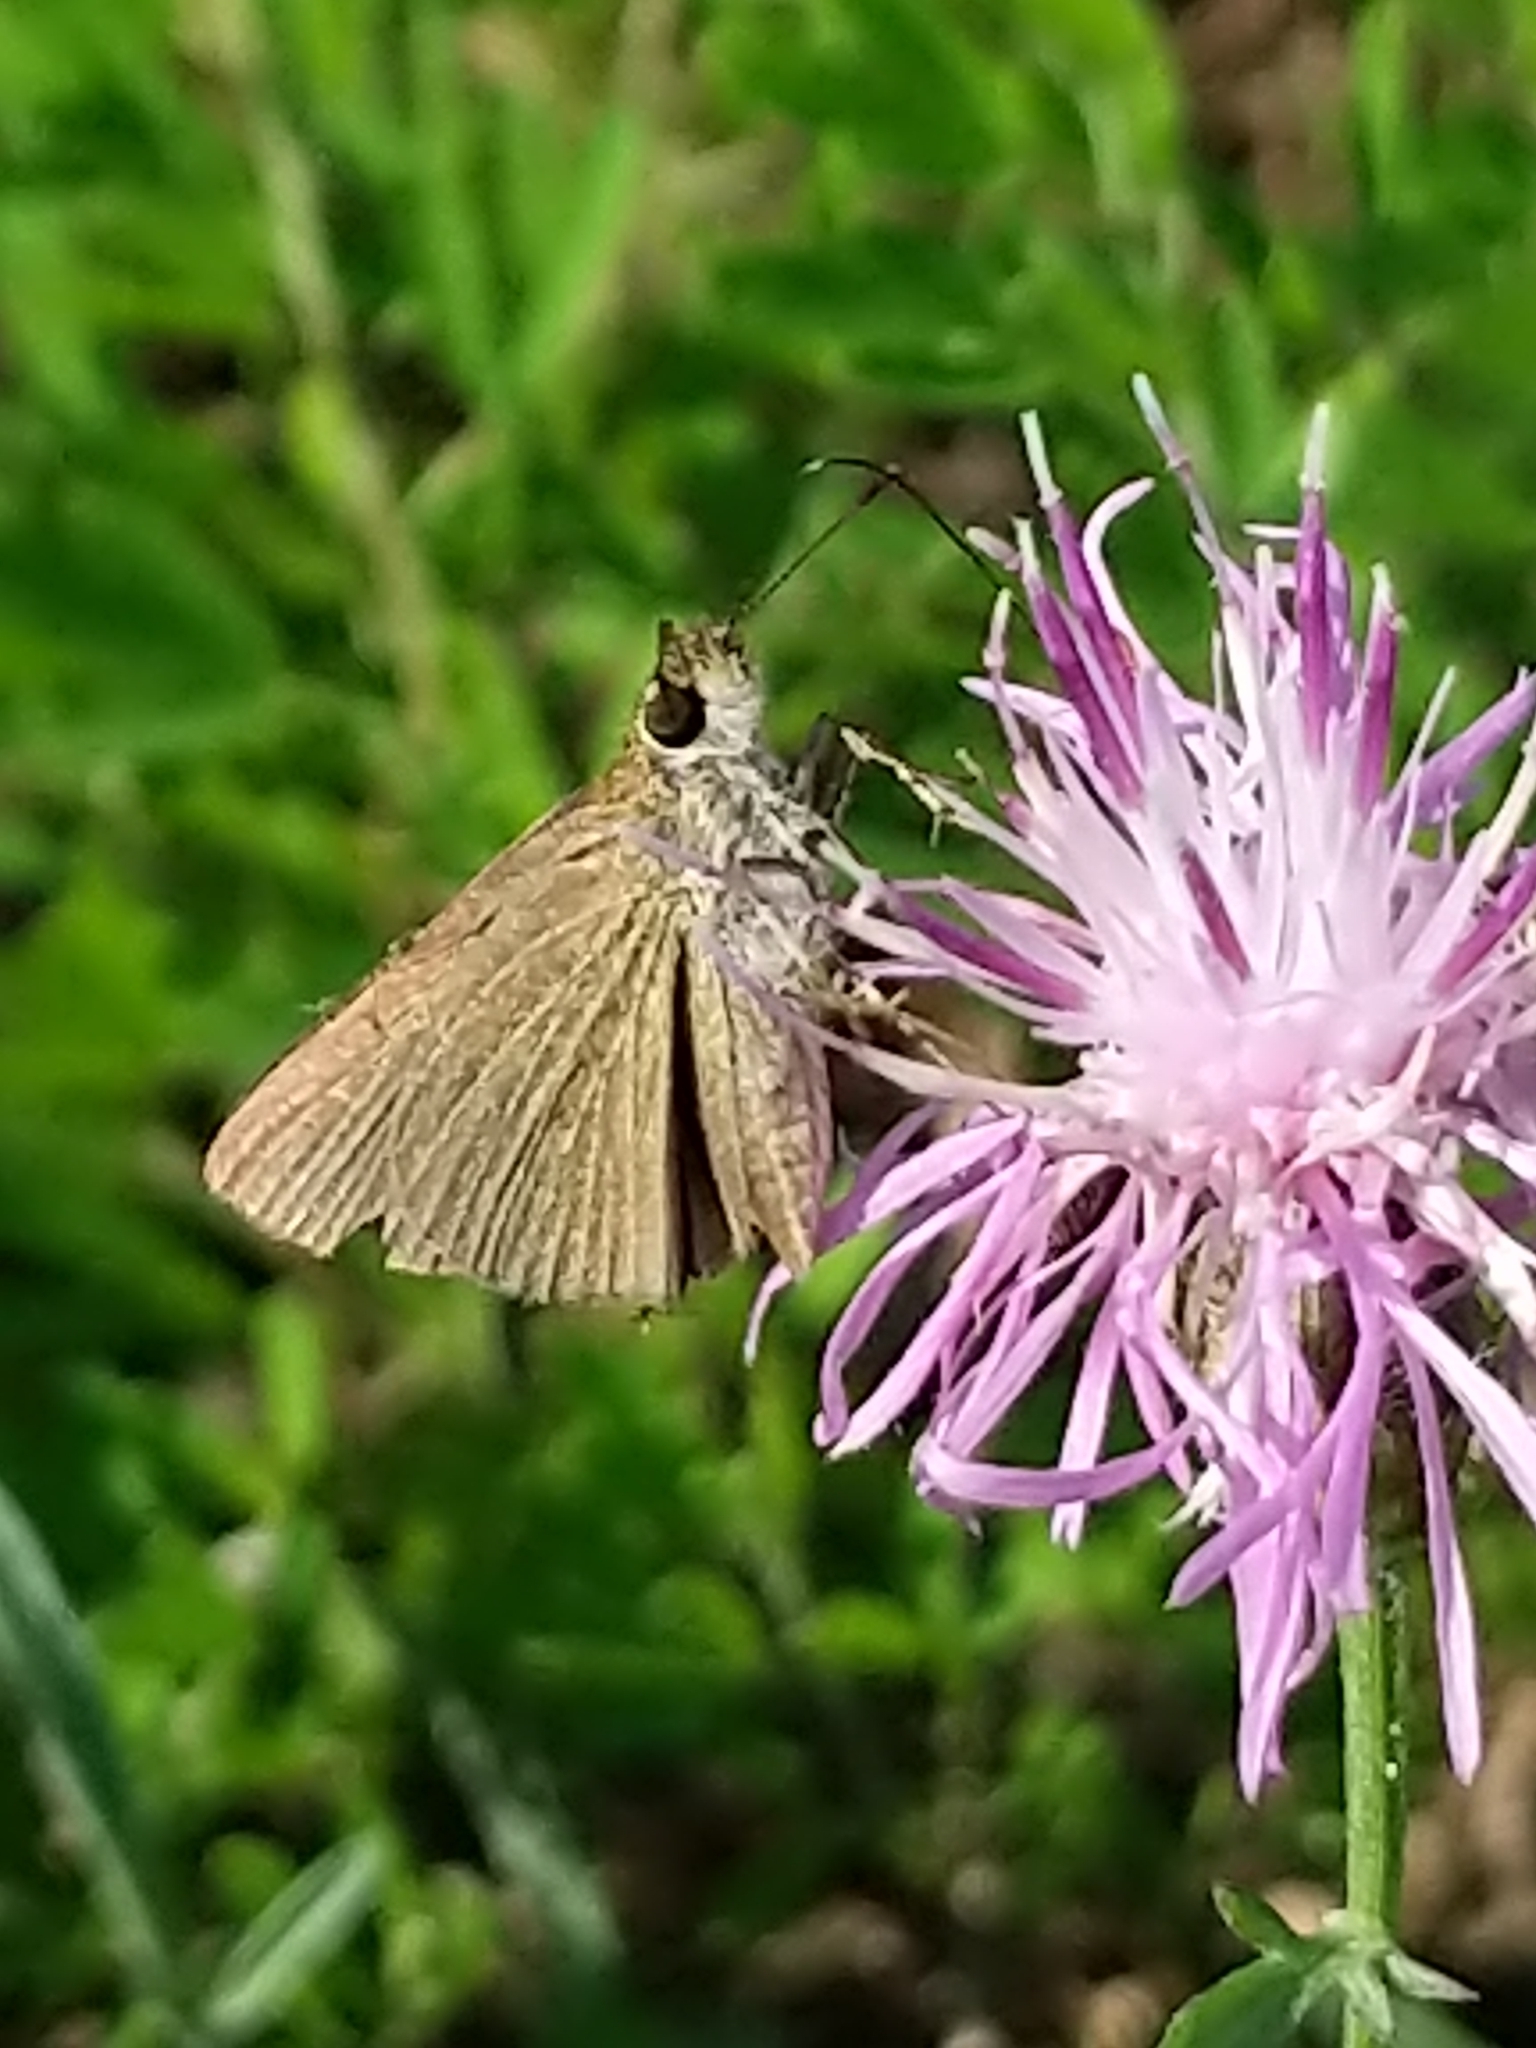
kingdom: Animalia
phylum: Arthropoda
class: Insecta
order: Lepidoptera
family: Hesperiidae
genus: Nastra
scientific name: Nastra lherminier
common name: Swarthy skipper
